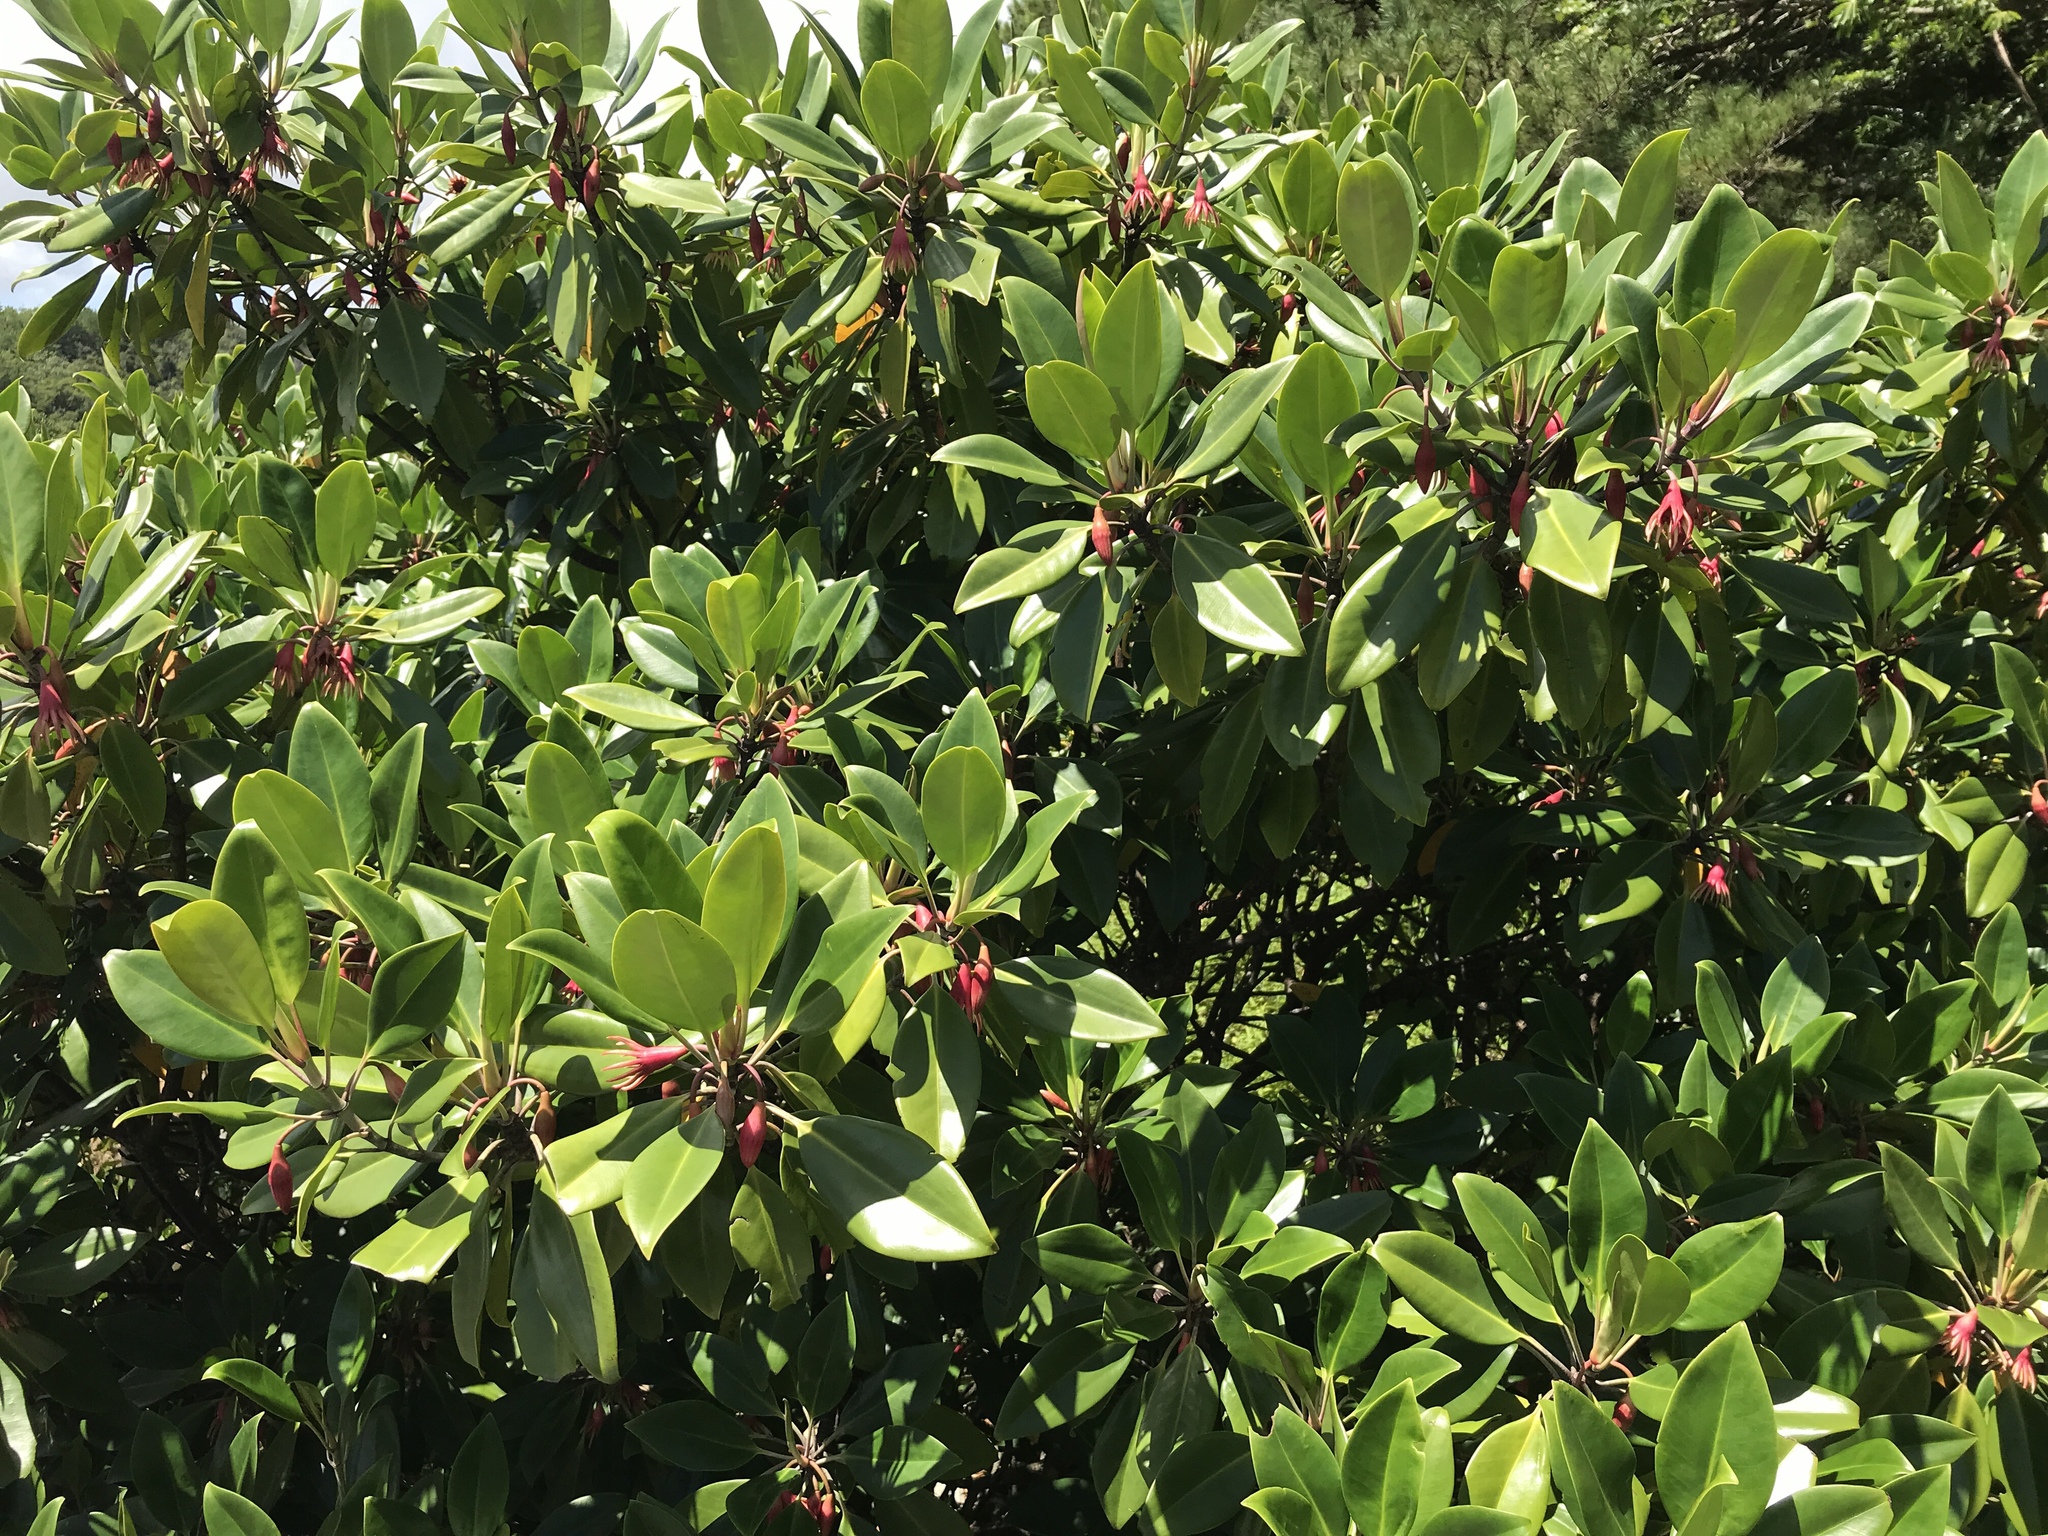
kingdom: Plantae
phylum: Tracheophyta
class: Magnoliopsida
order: Malpighiales
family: Rhizophoraceae
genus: Bruguiera
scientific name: Bruguiera gymnorhiza
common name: Oriental mangrove
